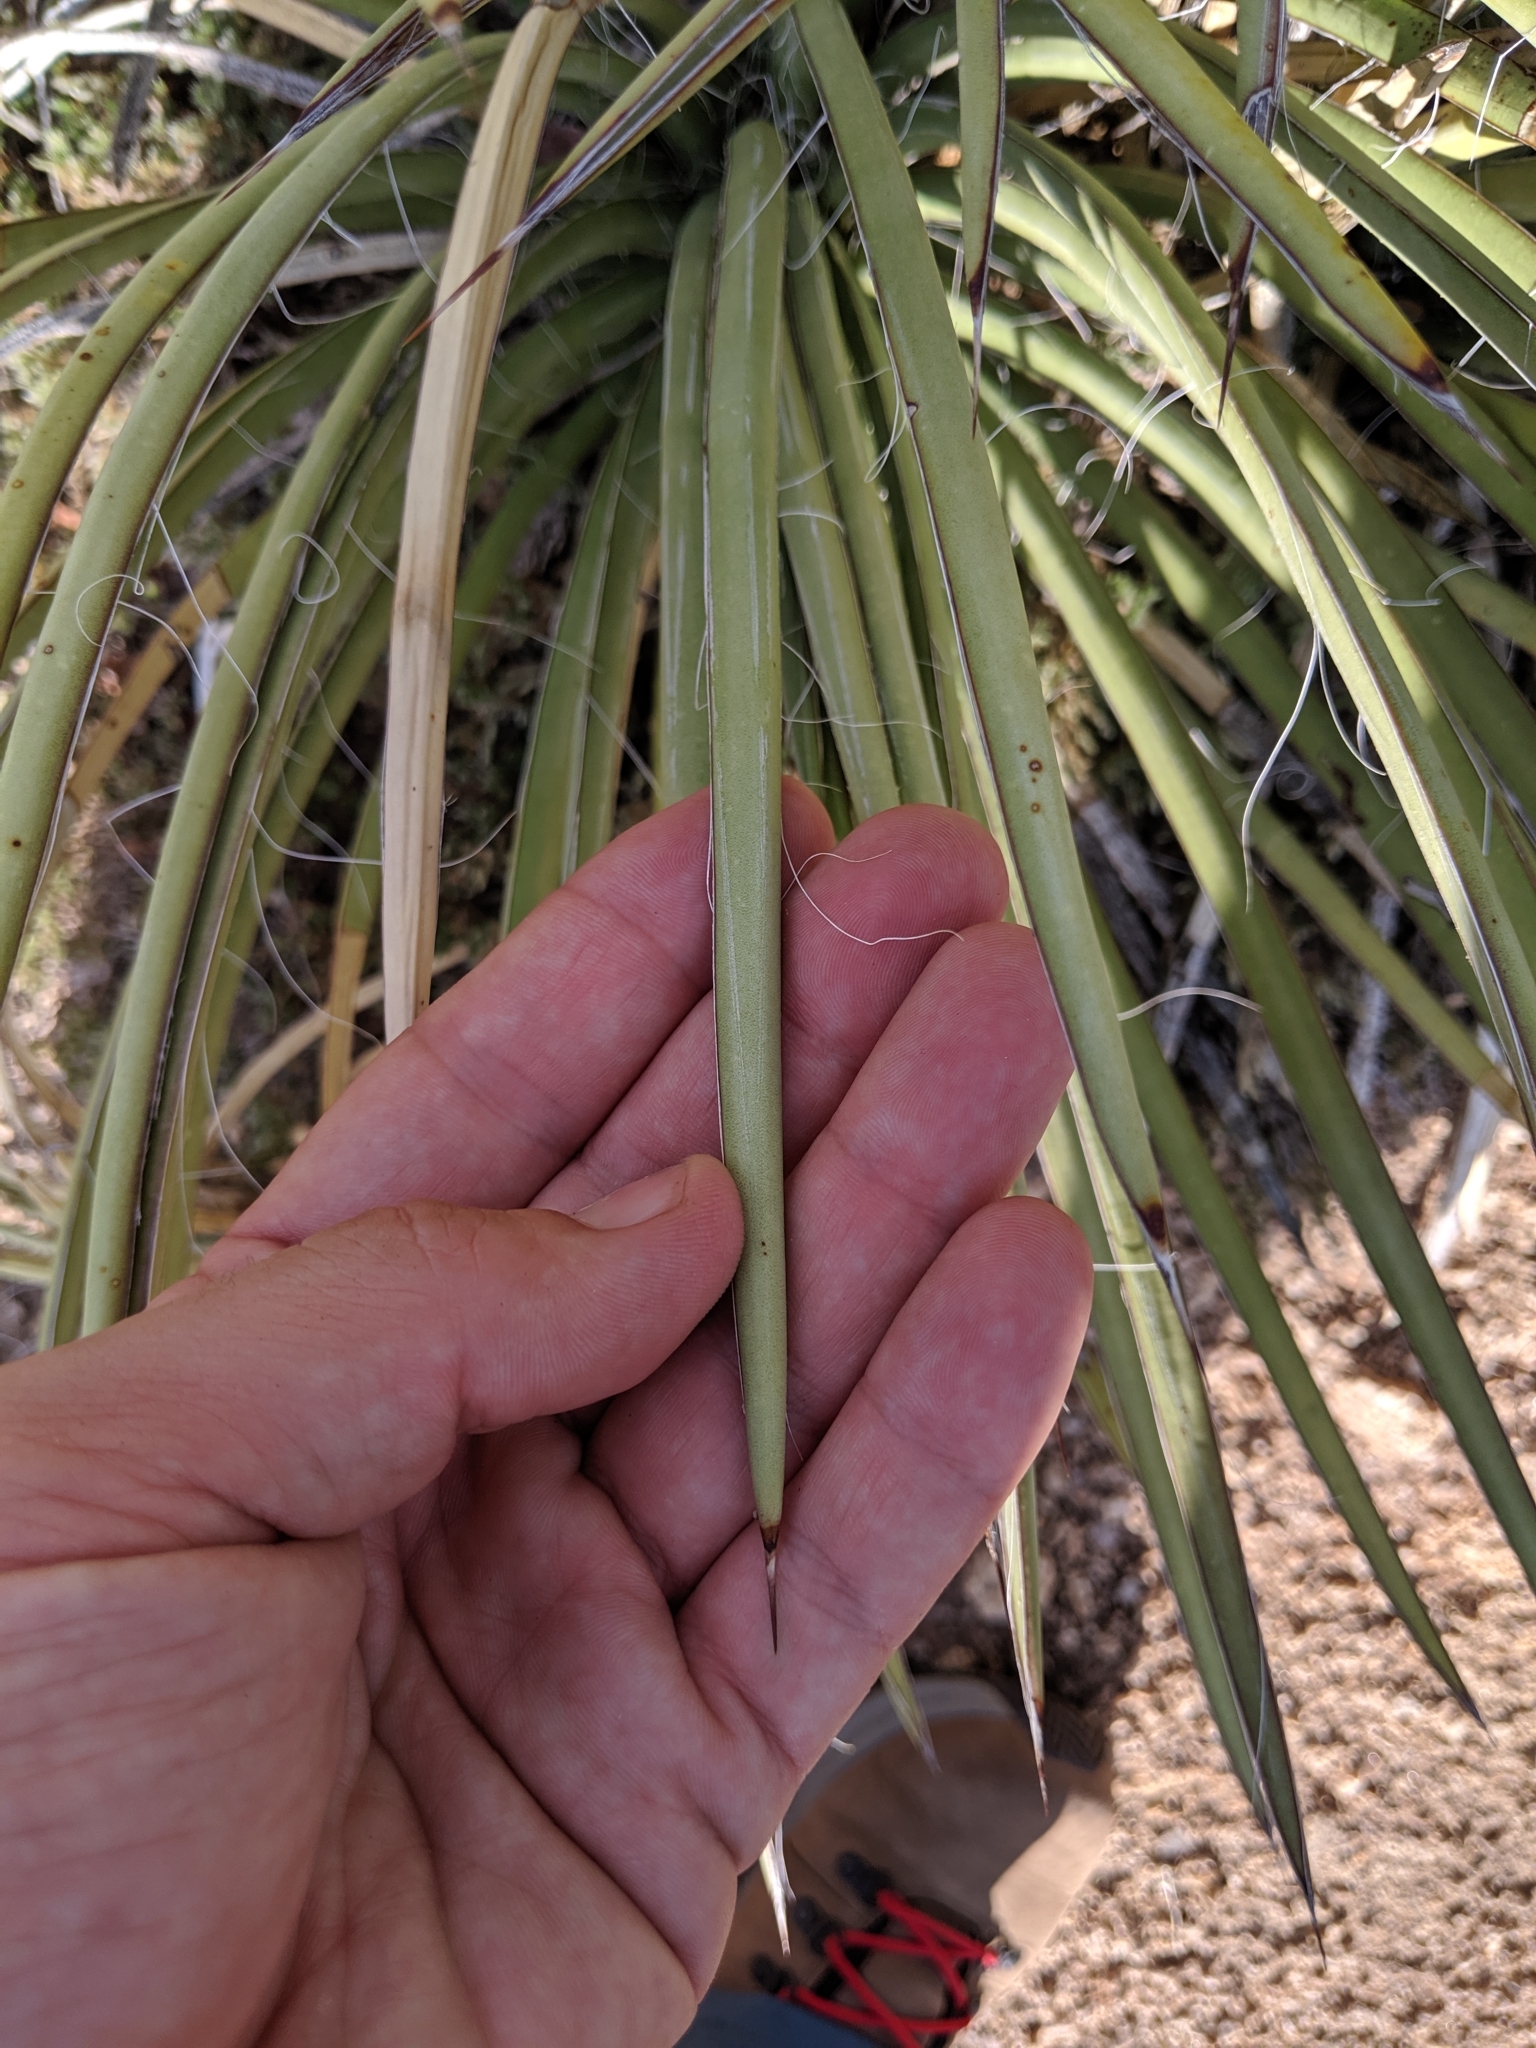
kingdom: Plantae
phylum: Tracheophyta
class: Liliopsida
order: Asparagales
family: Asparagaceae
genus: Agave
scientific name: Agave schottii
